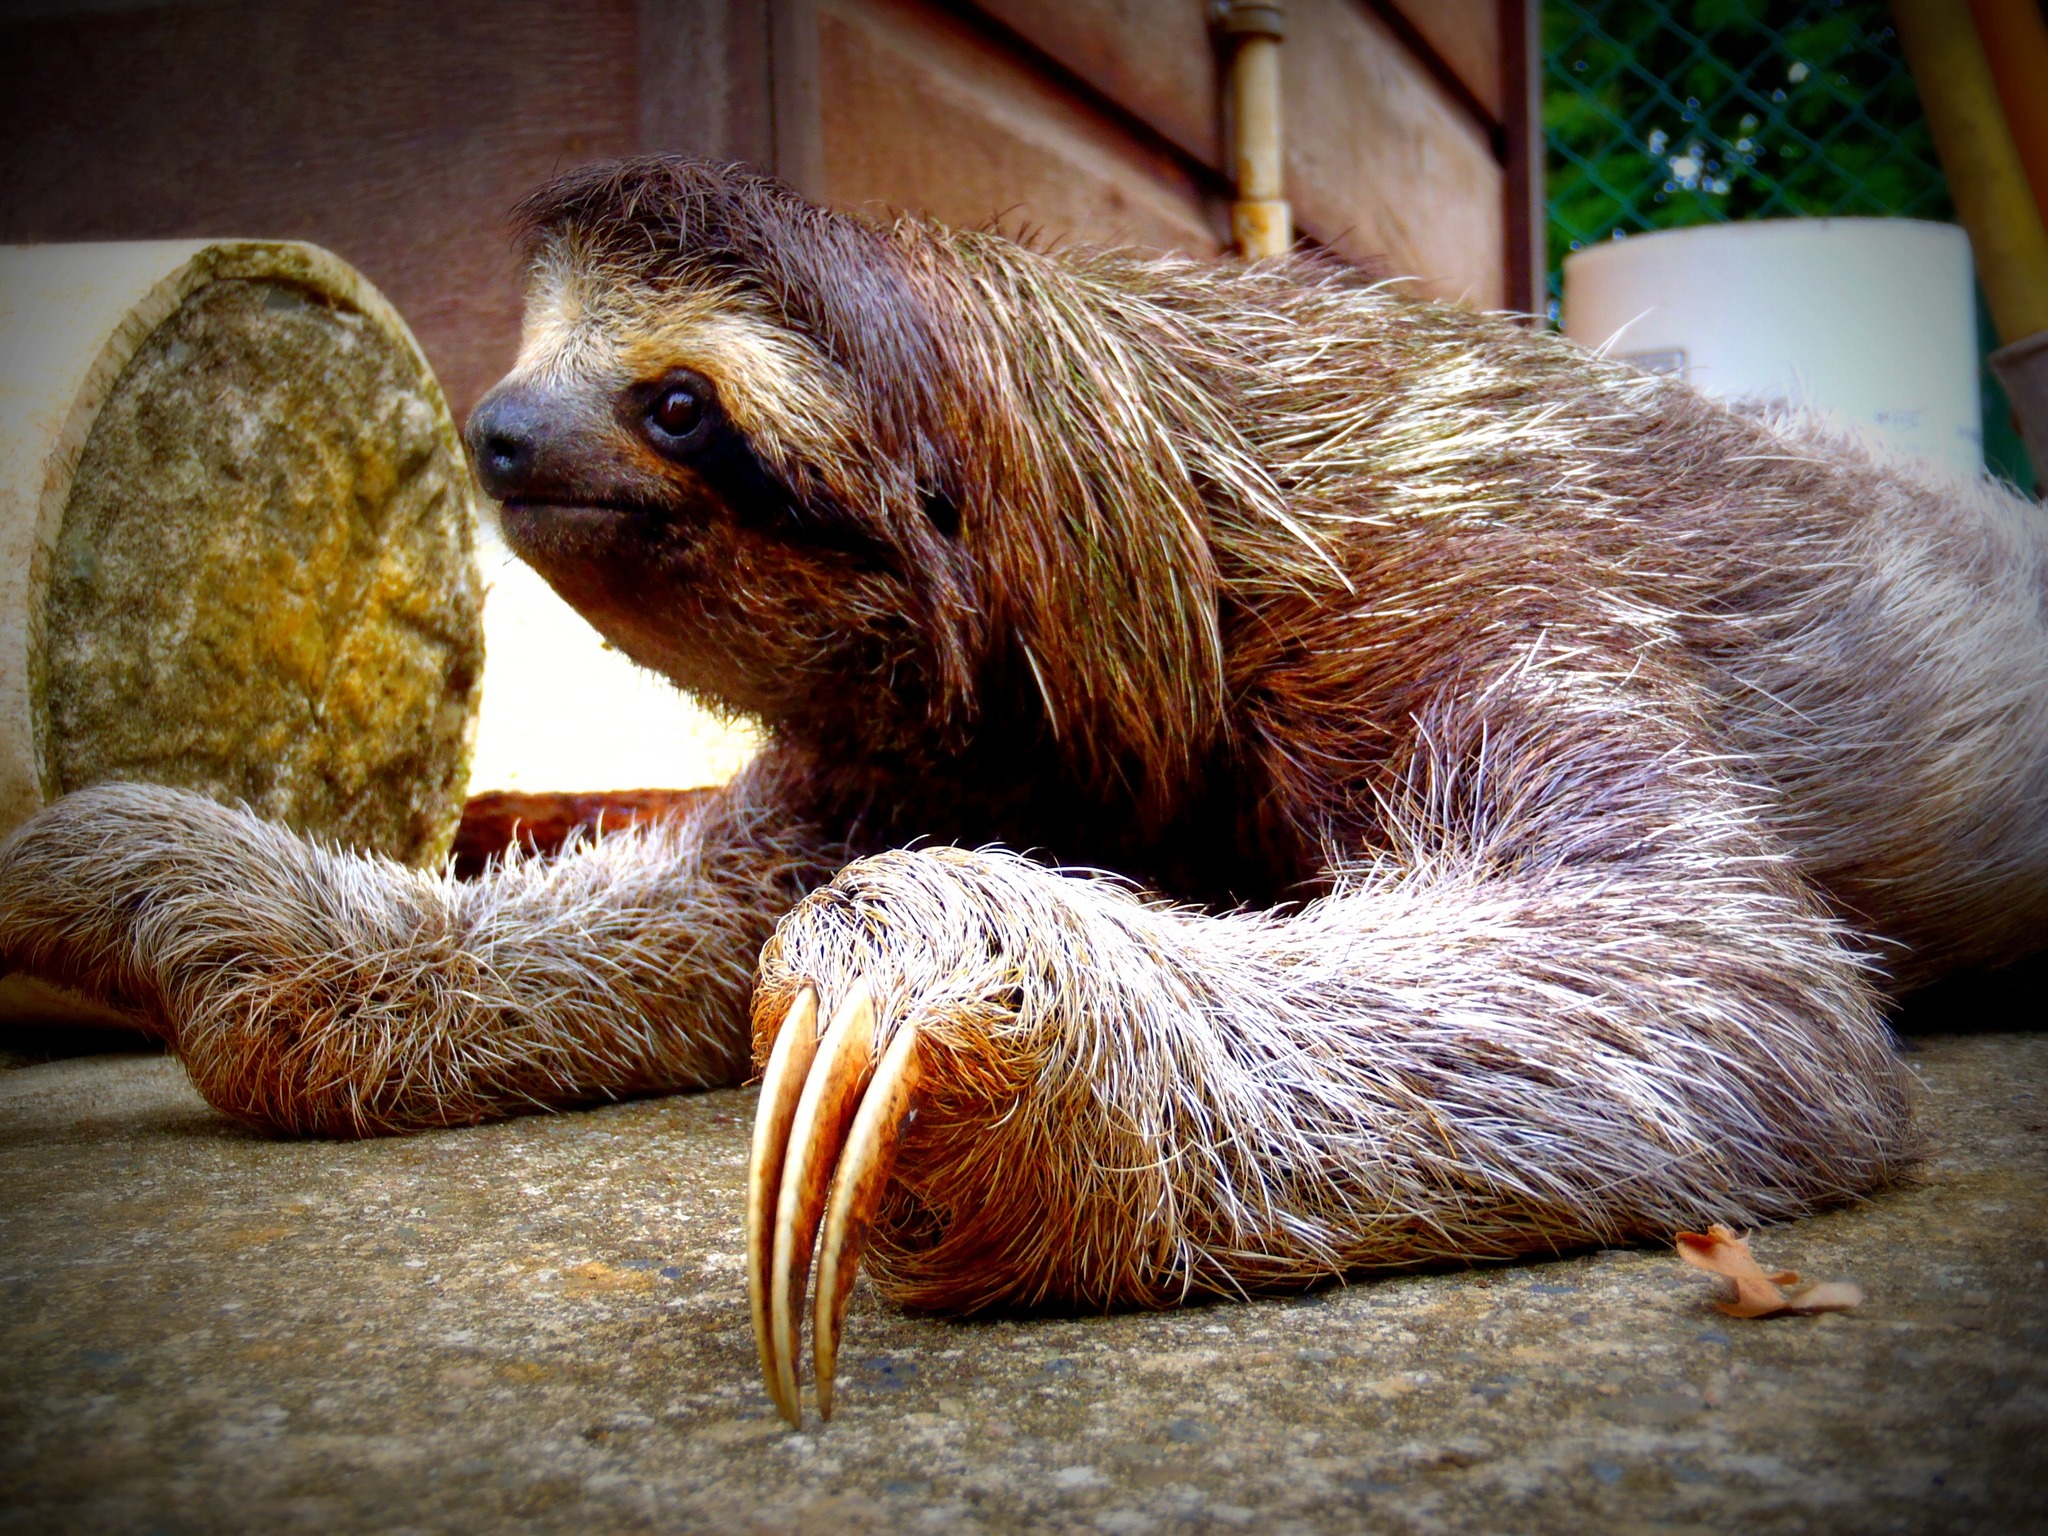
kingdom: Animalia
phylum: Chordata
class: Mammalia
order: Pilosa
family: Bradypodidae
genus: Bradypus
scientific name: Bradypus variegatus
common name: Brown-throated three-toed sloth
